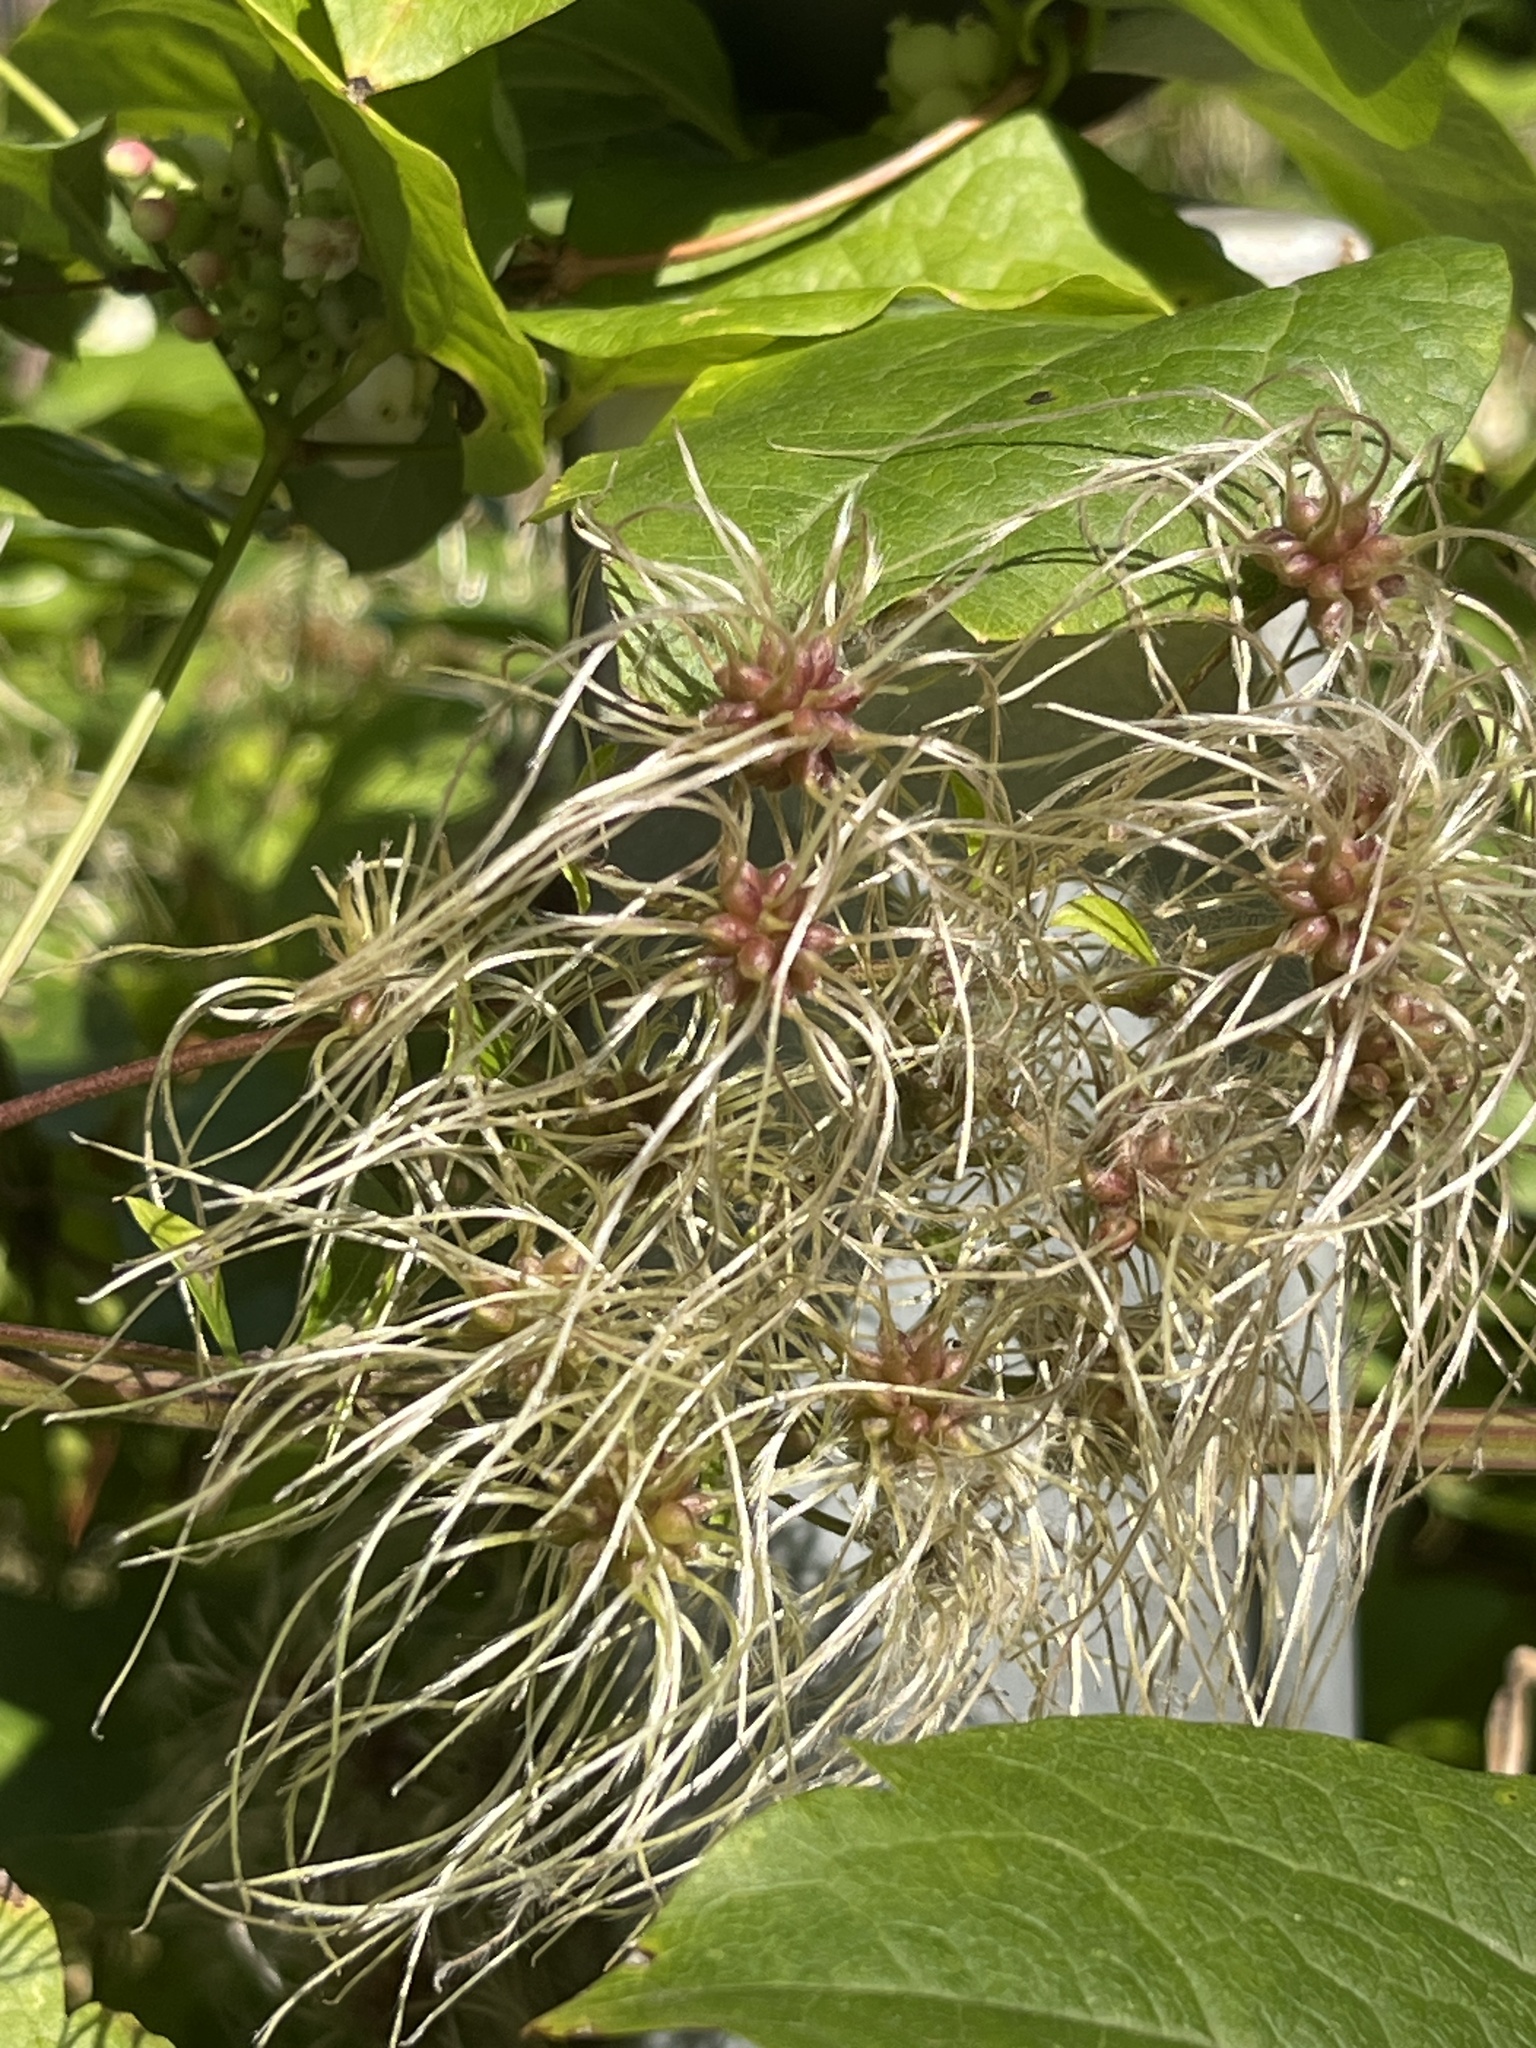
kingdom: Plantae
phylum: Tracheophyta
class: Magnoliopsida
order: Ranunculales
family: Ranunculaceae
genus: Clematis
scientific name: Clematis vitalba
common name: Evergreen clematis
